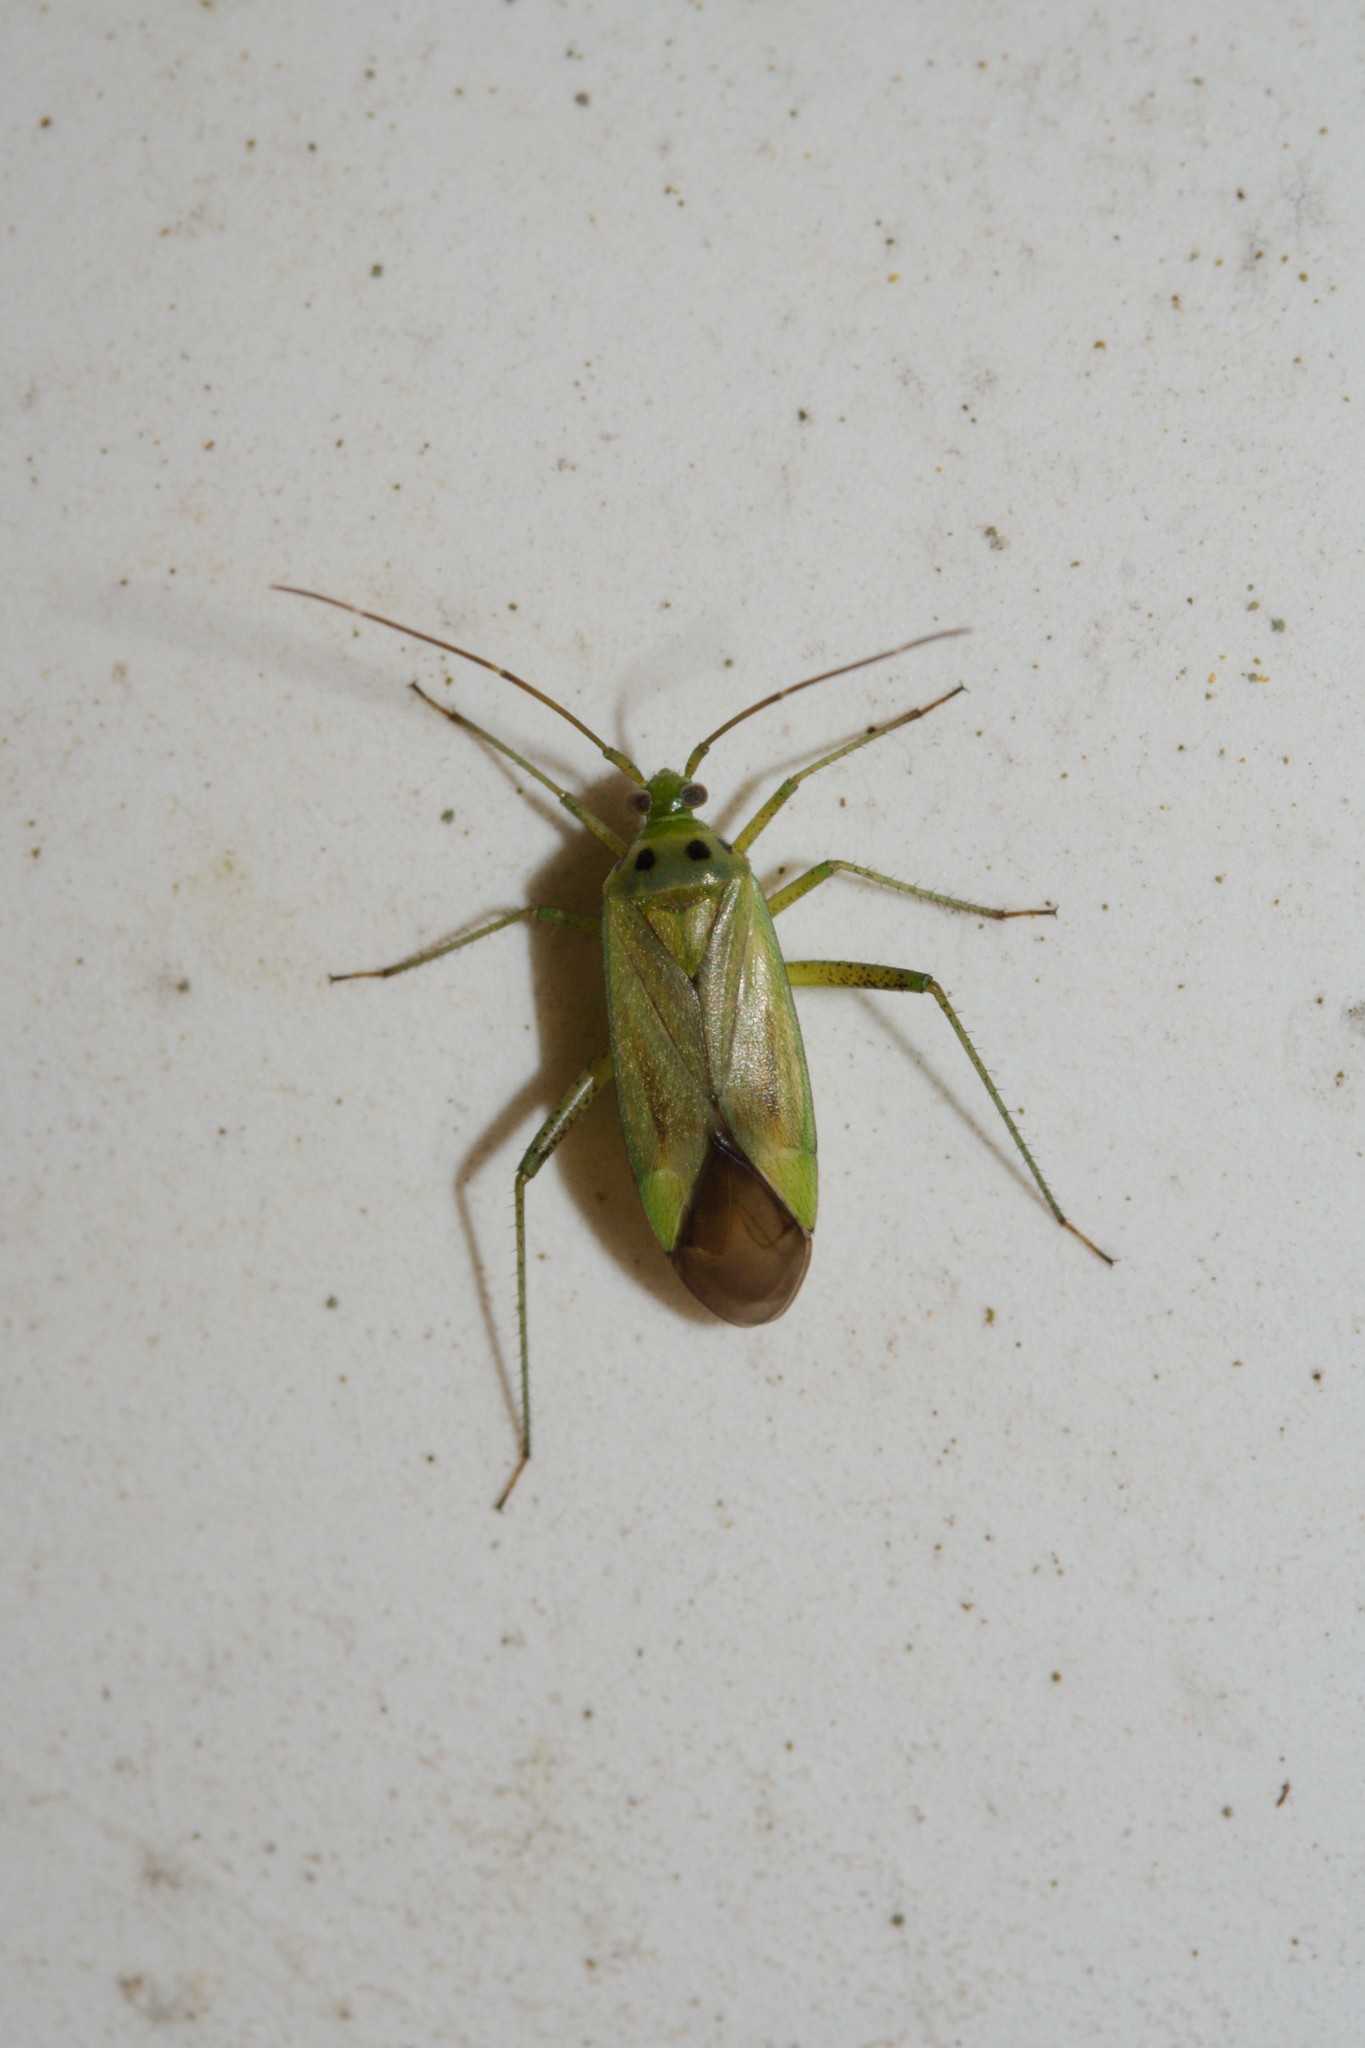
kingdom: Animalia
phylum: Arthropoda
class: Insecta
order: Hemiptera
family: Miridae
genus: Adelphocoris
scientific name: Adelphocoris quadripunctatus
